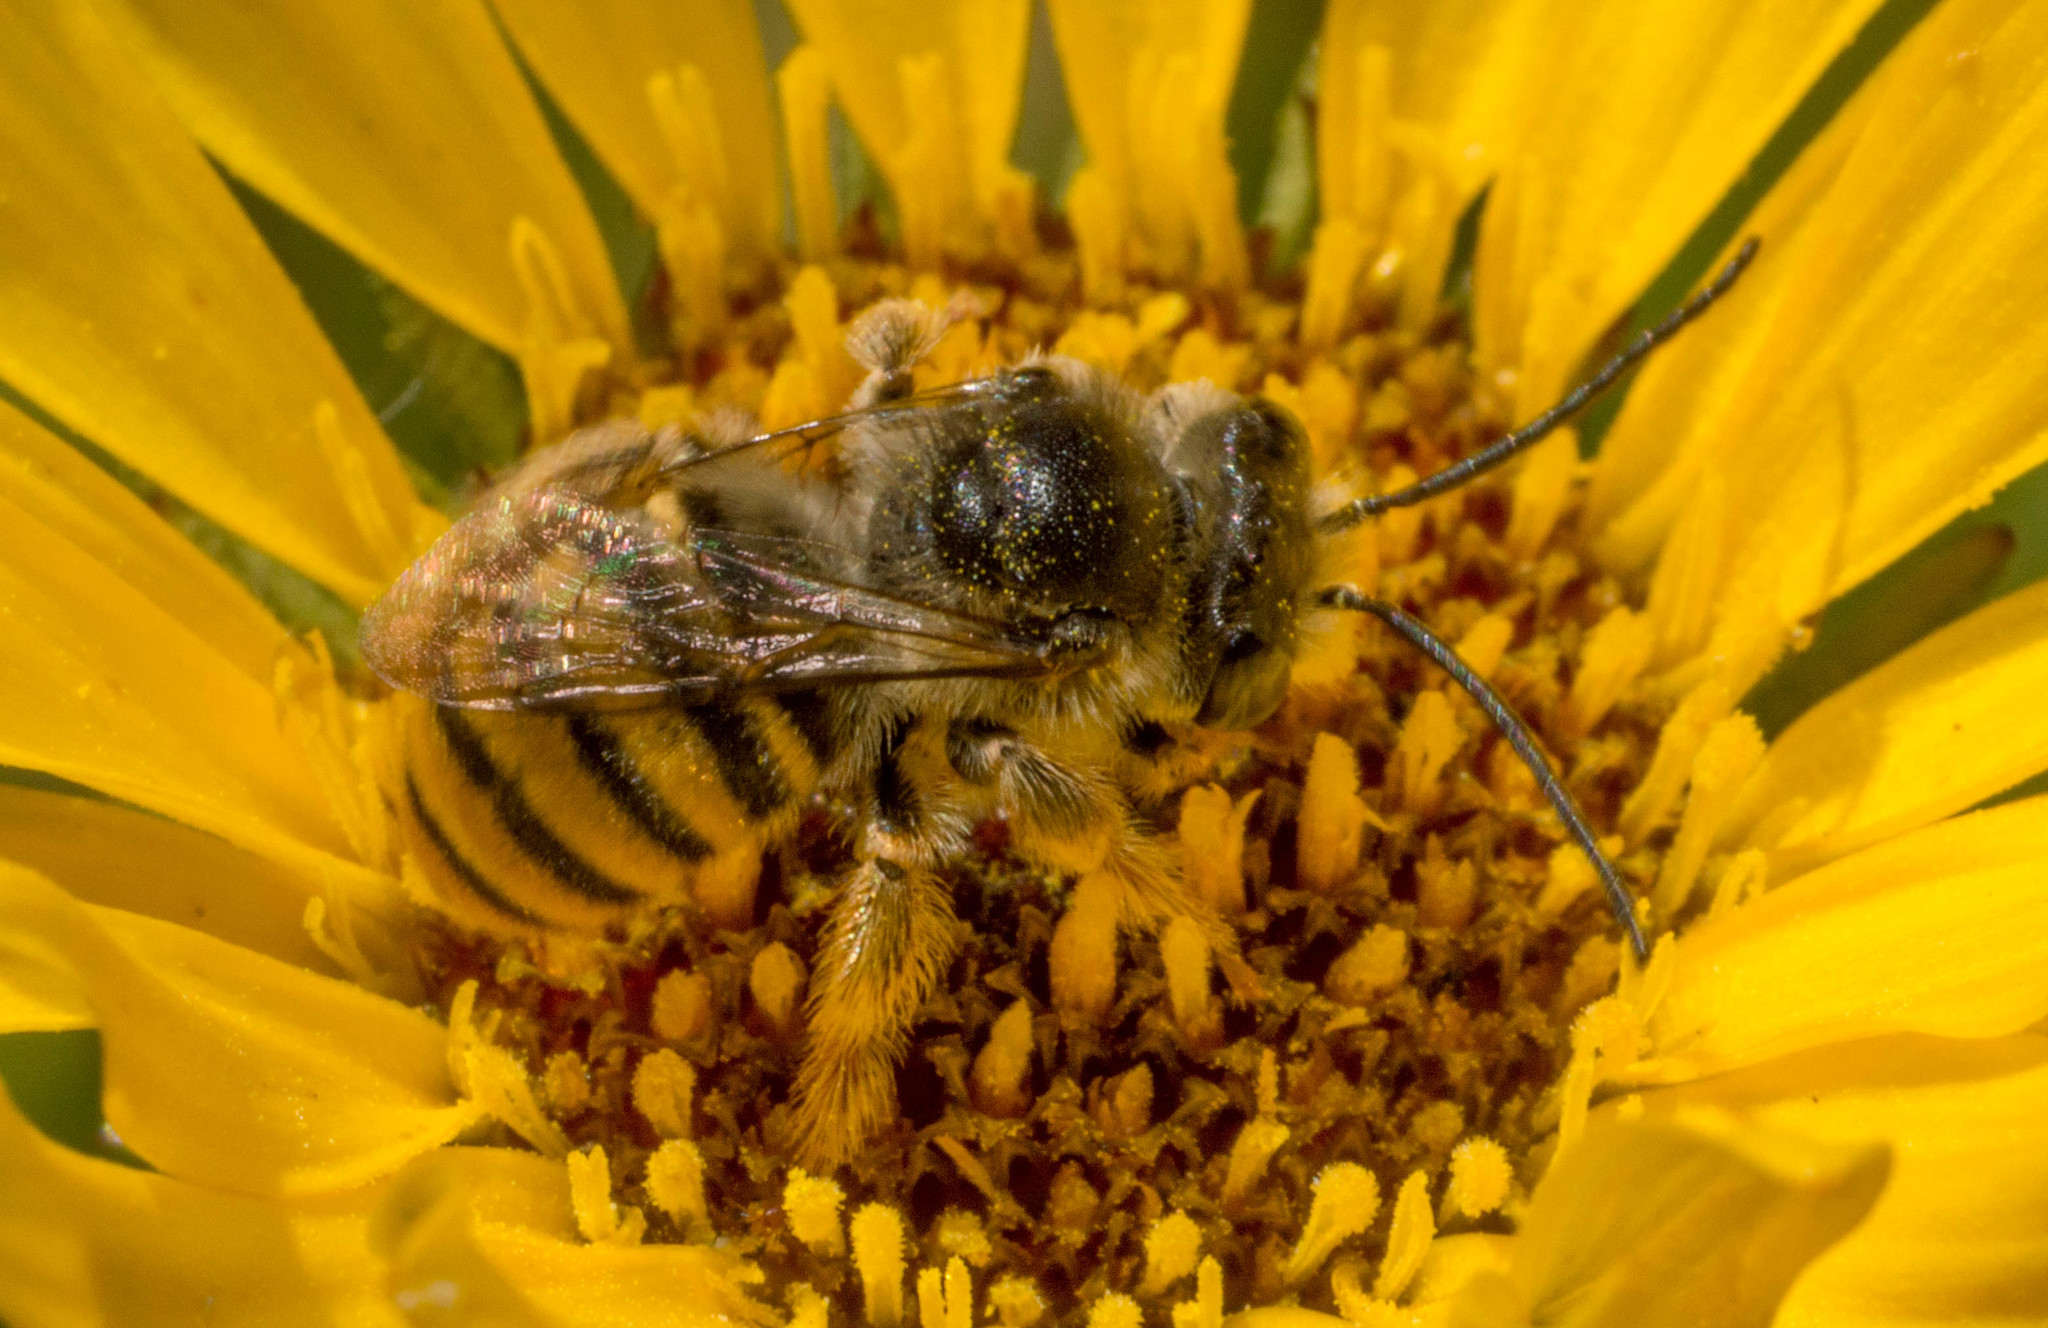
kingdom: Animalia
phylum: Arthropoda
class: Insecta
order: Hymenoptera
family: Apidae
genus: Melissoptila
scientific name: Melissoptila bonaerensis
